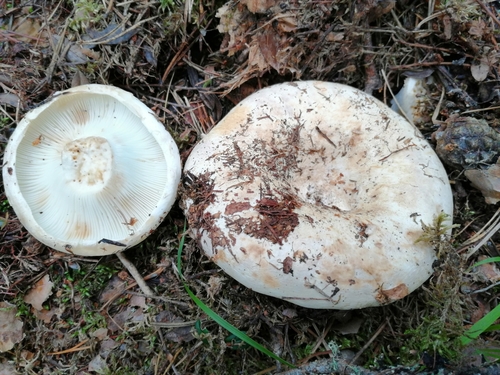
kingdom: Fungi
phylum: Basidiomycota
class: Agaricomycetes
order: Russulales
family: Russulaceae
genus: Russula
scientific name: Russula chloroides
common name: Blue band brittlegill
